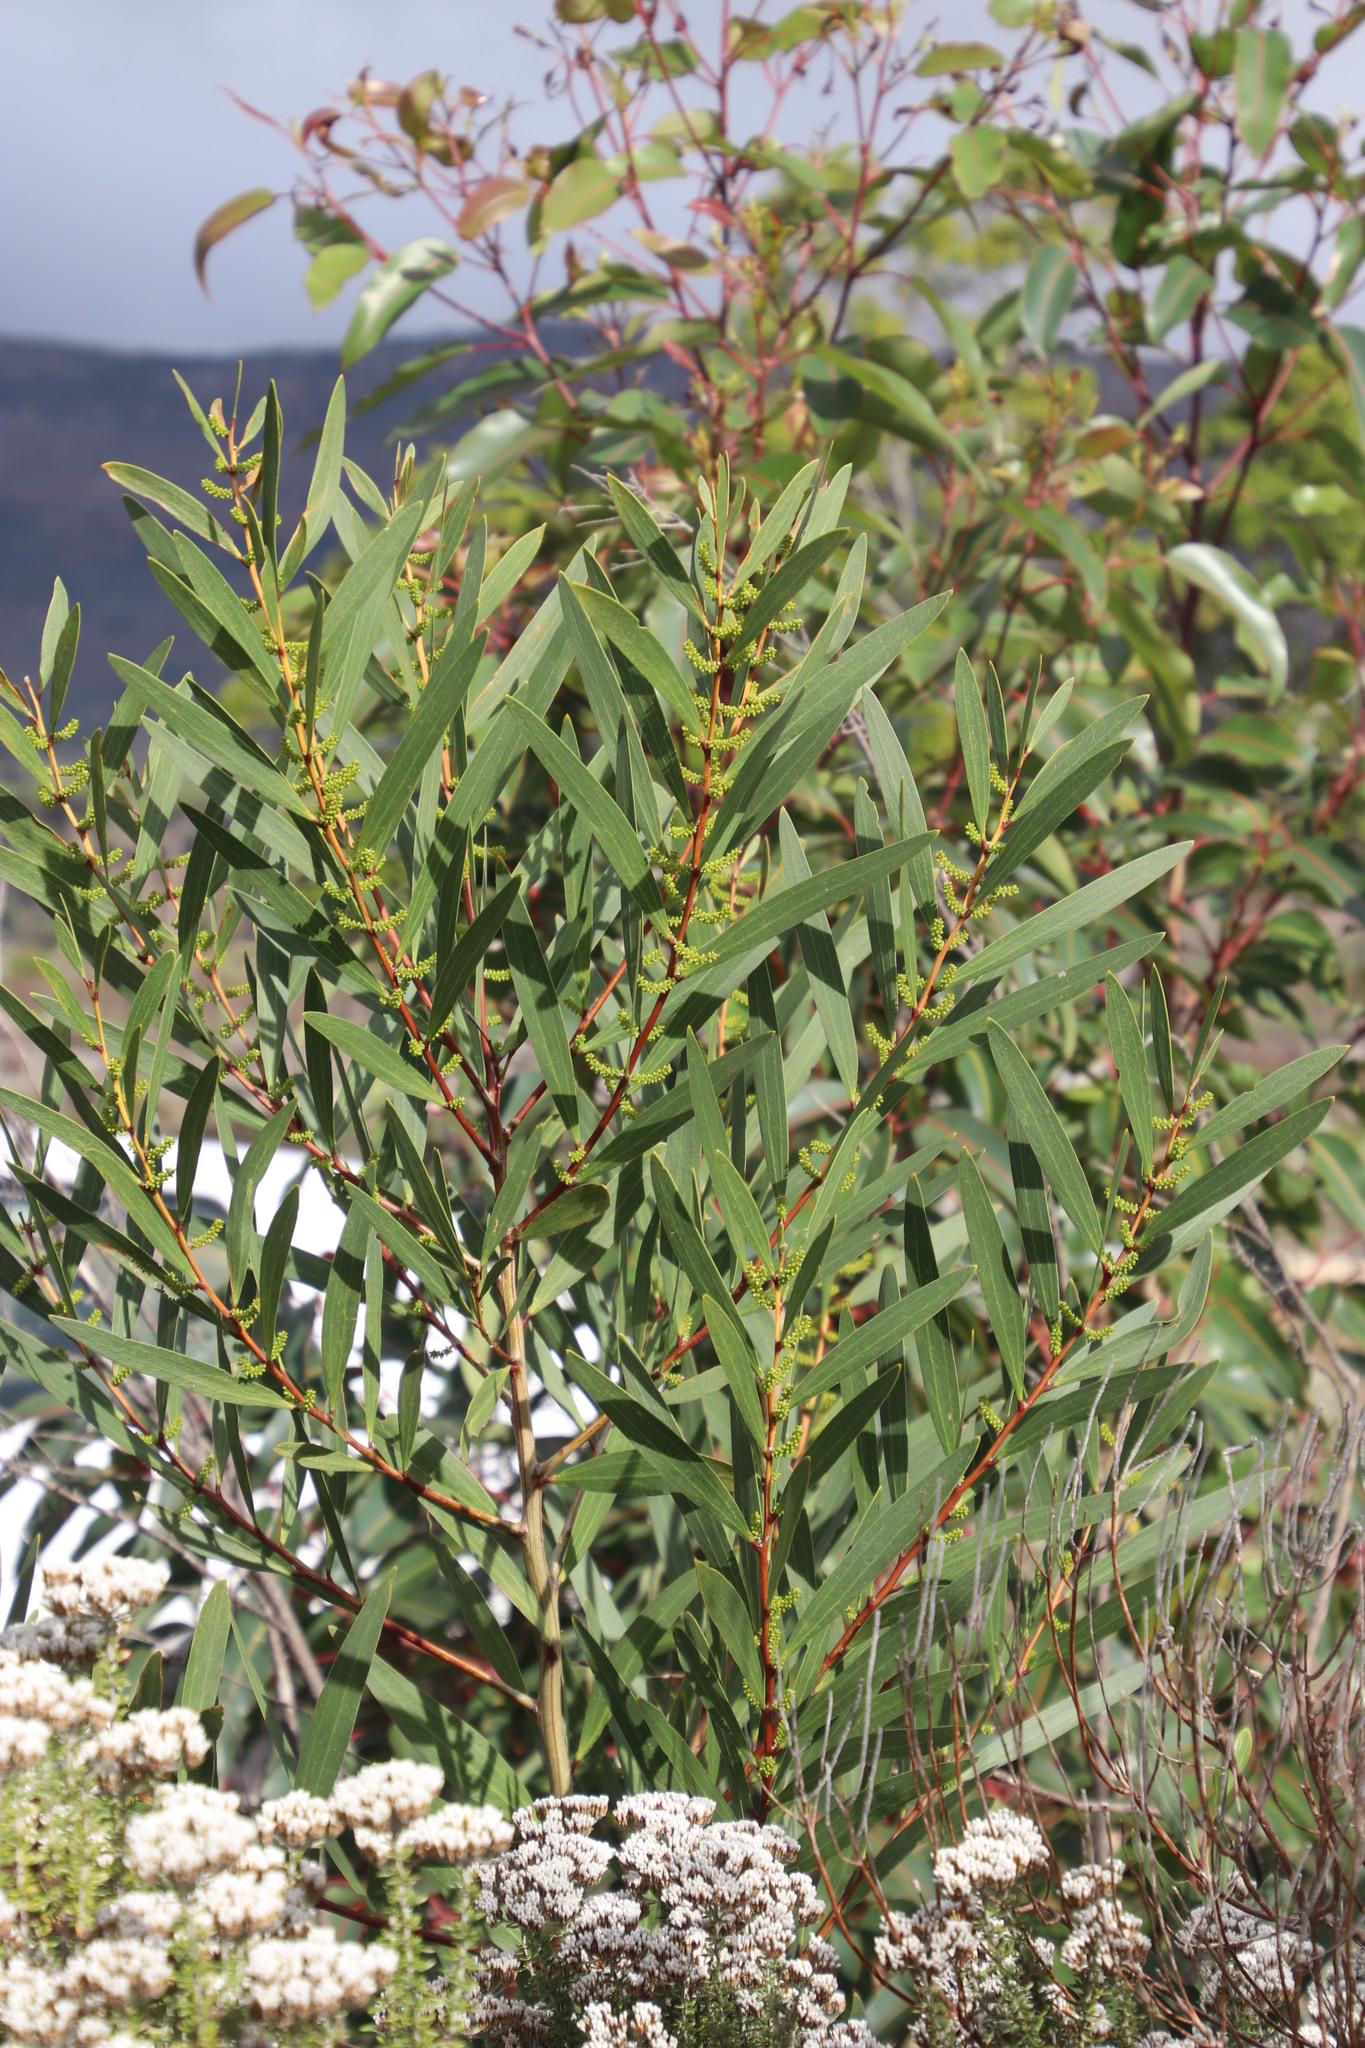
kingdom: Plantae
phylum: Tracheophyta
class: Magnoliopsida
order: Fabales
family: Fabaceae
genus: Acacia
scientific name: Acacia longifolia
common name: Sydney golden wattle
